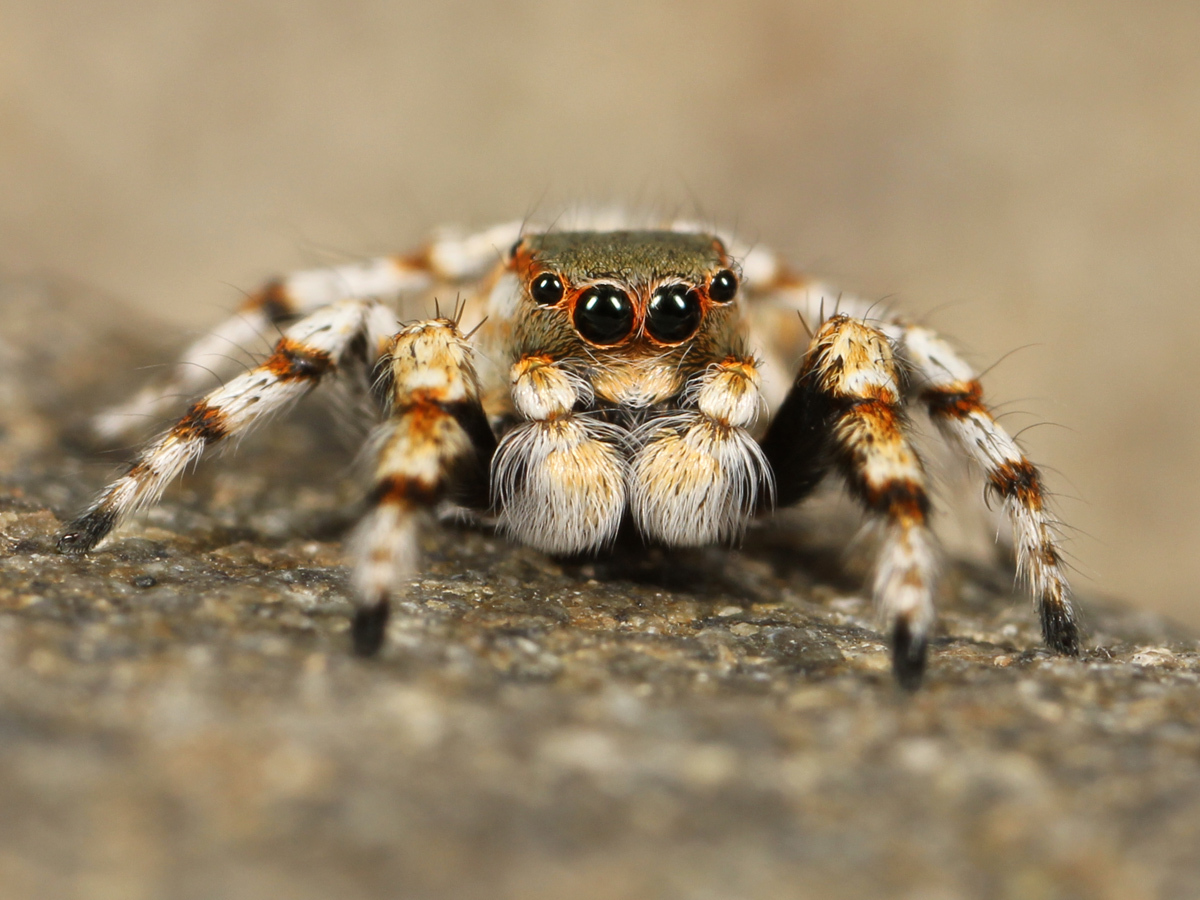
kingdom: Animalia
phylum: Arthropoda
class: Arachnida
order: Araneae
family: Salticidae
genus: Habronattus
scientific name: Habronattus amicus
